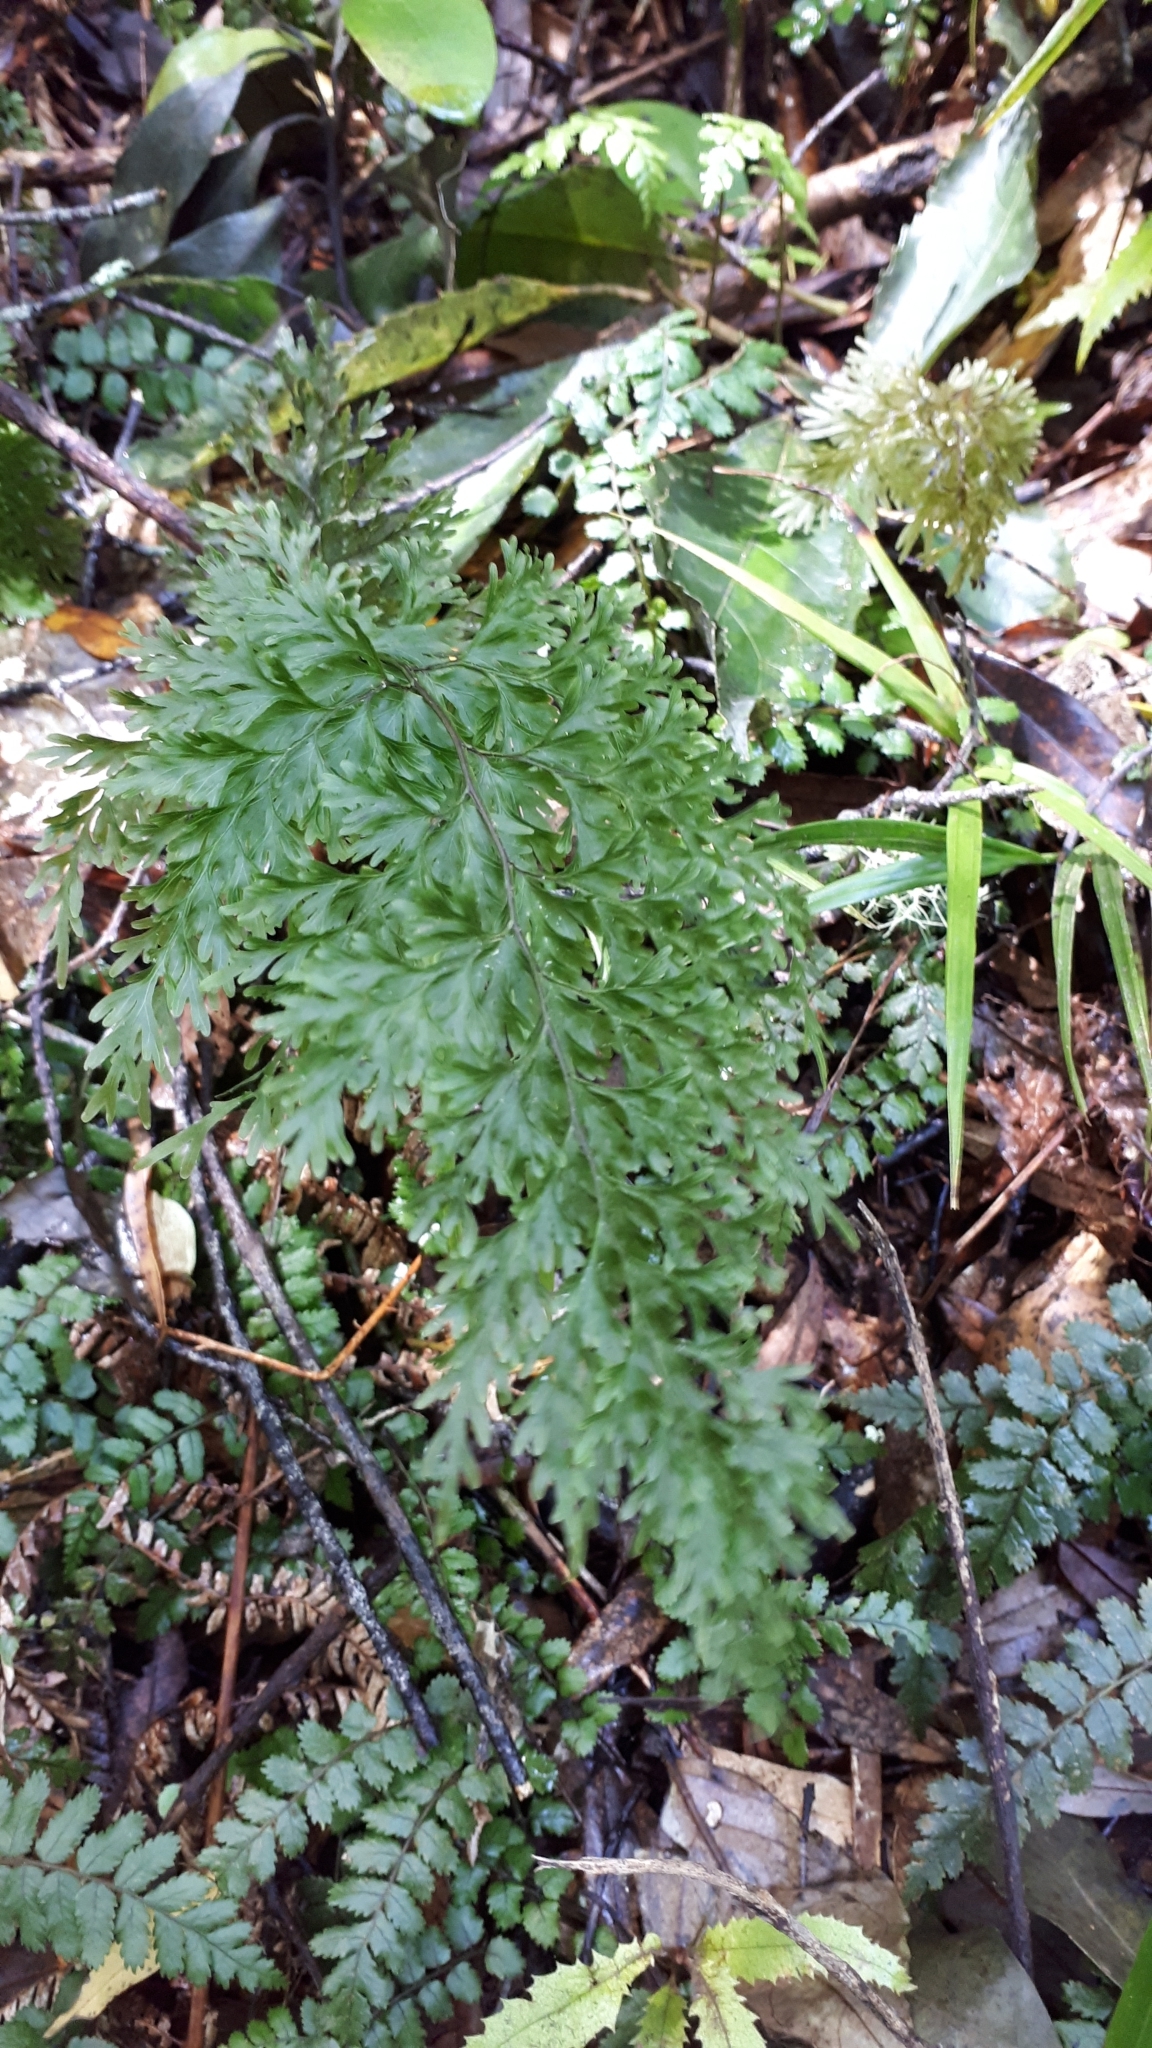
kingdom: Plantae
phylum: Tracheophyta
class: Polypodiopsida
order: Hymenophyllales
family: Hymenophyllaceae
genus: Hymenophyllum
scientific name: Hymenophyllum demissum
